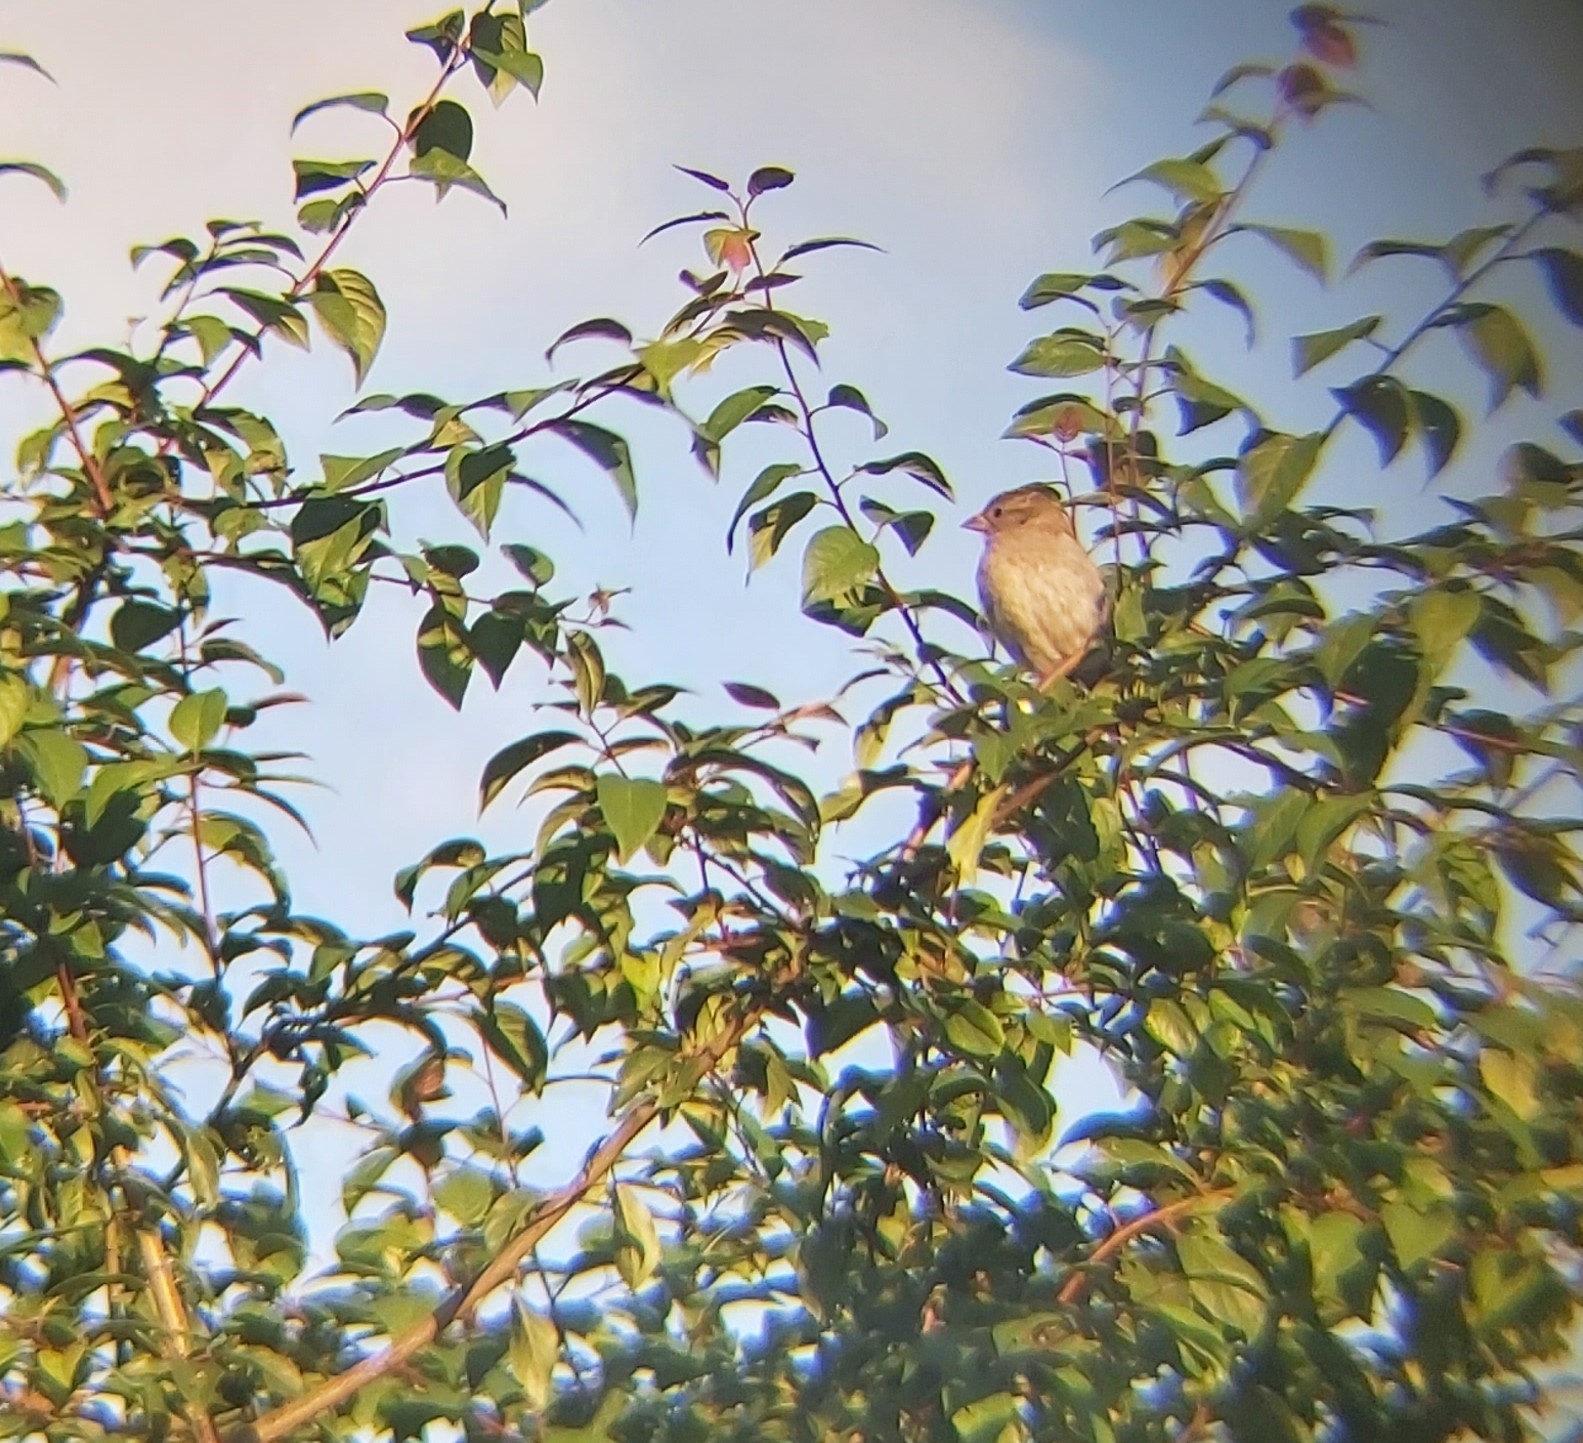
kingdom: Animalia
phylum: Chordata
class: Aves
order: Passeriformes
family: Passeridae
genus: Passer
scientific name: Passer domesticus
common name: House sparrow
